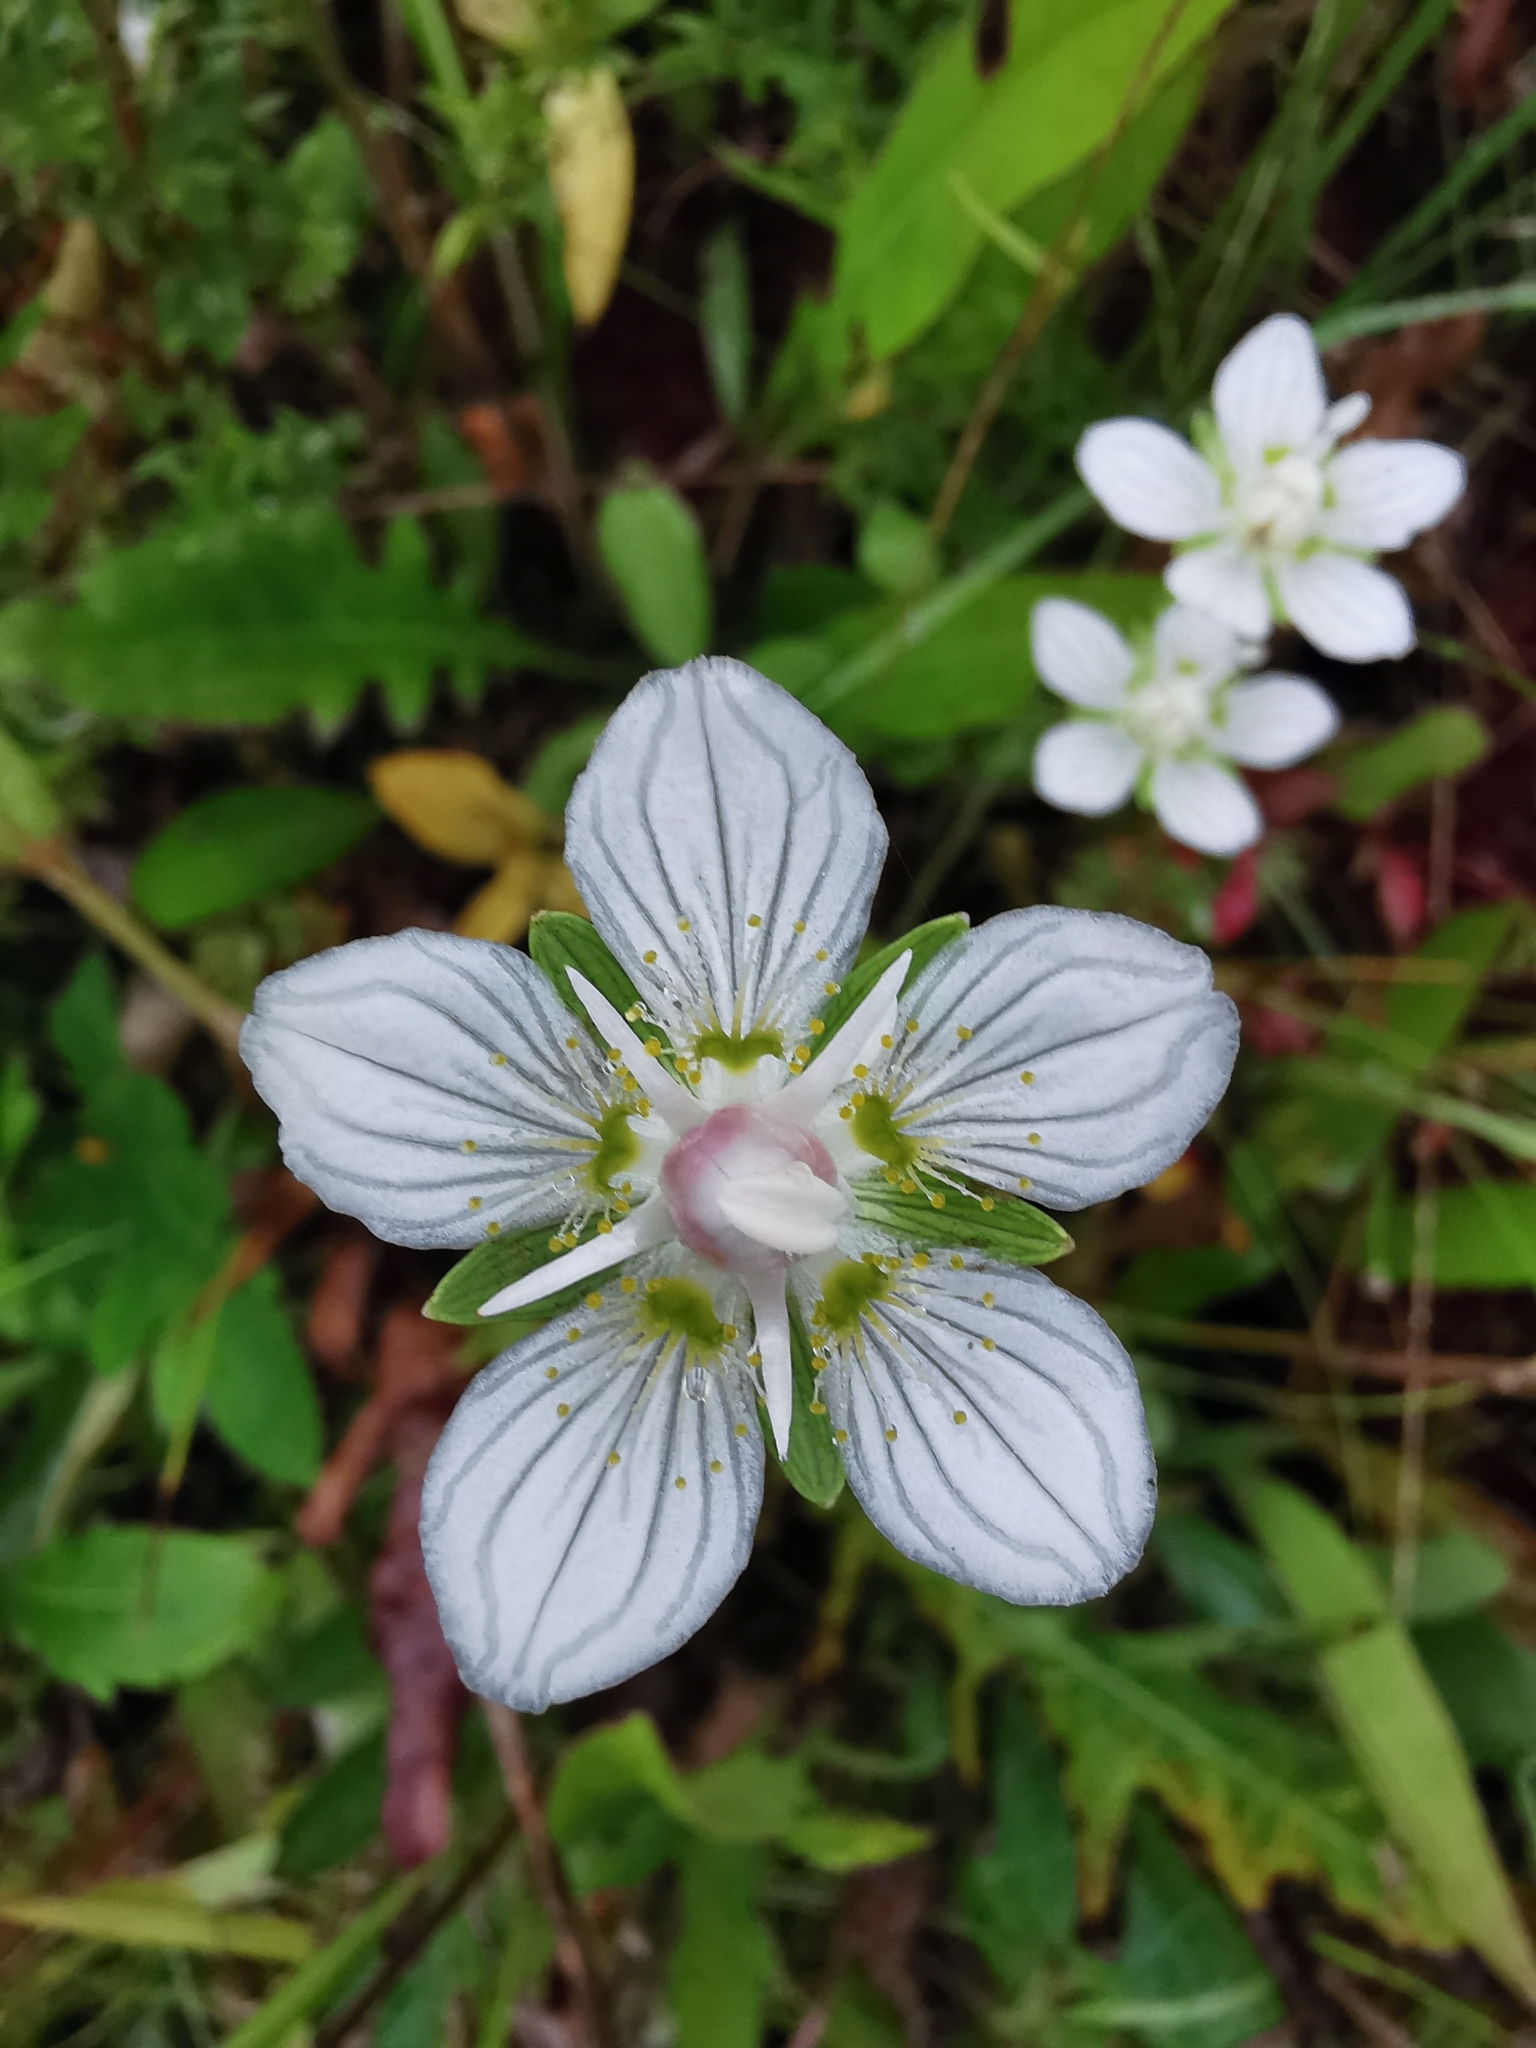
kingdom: Plantae
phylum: Tracheophyta
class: Magnoliopsida
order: Celastrales
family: Parnassiaceae
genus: Parnassia
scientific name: Parnassia palustris
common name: Grass-of-parnassus
